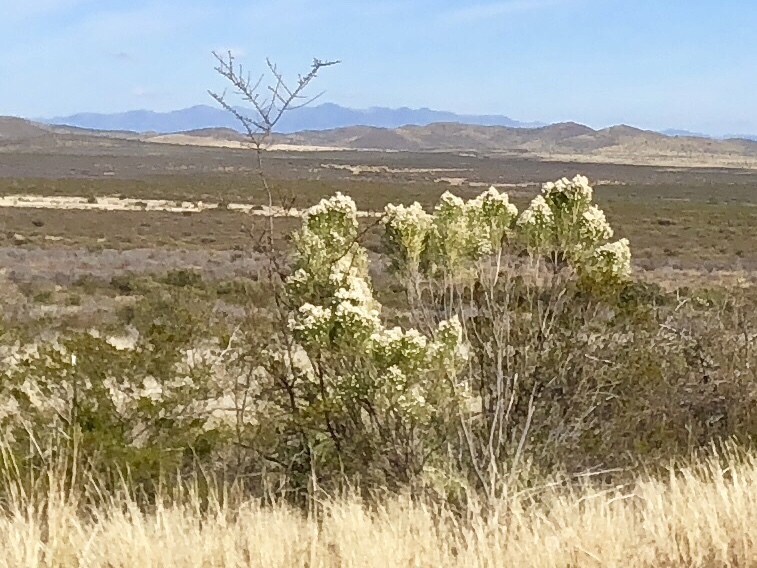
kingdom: Plantae
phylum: Tracheophyta
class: Magnoliopsida
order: Asterales
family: Asteraceae
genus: Baccharis
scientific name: Baccharis sarothroides
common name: Desert-broom
